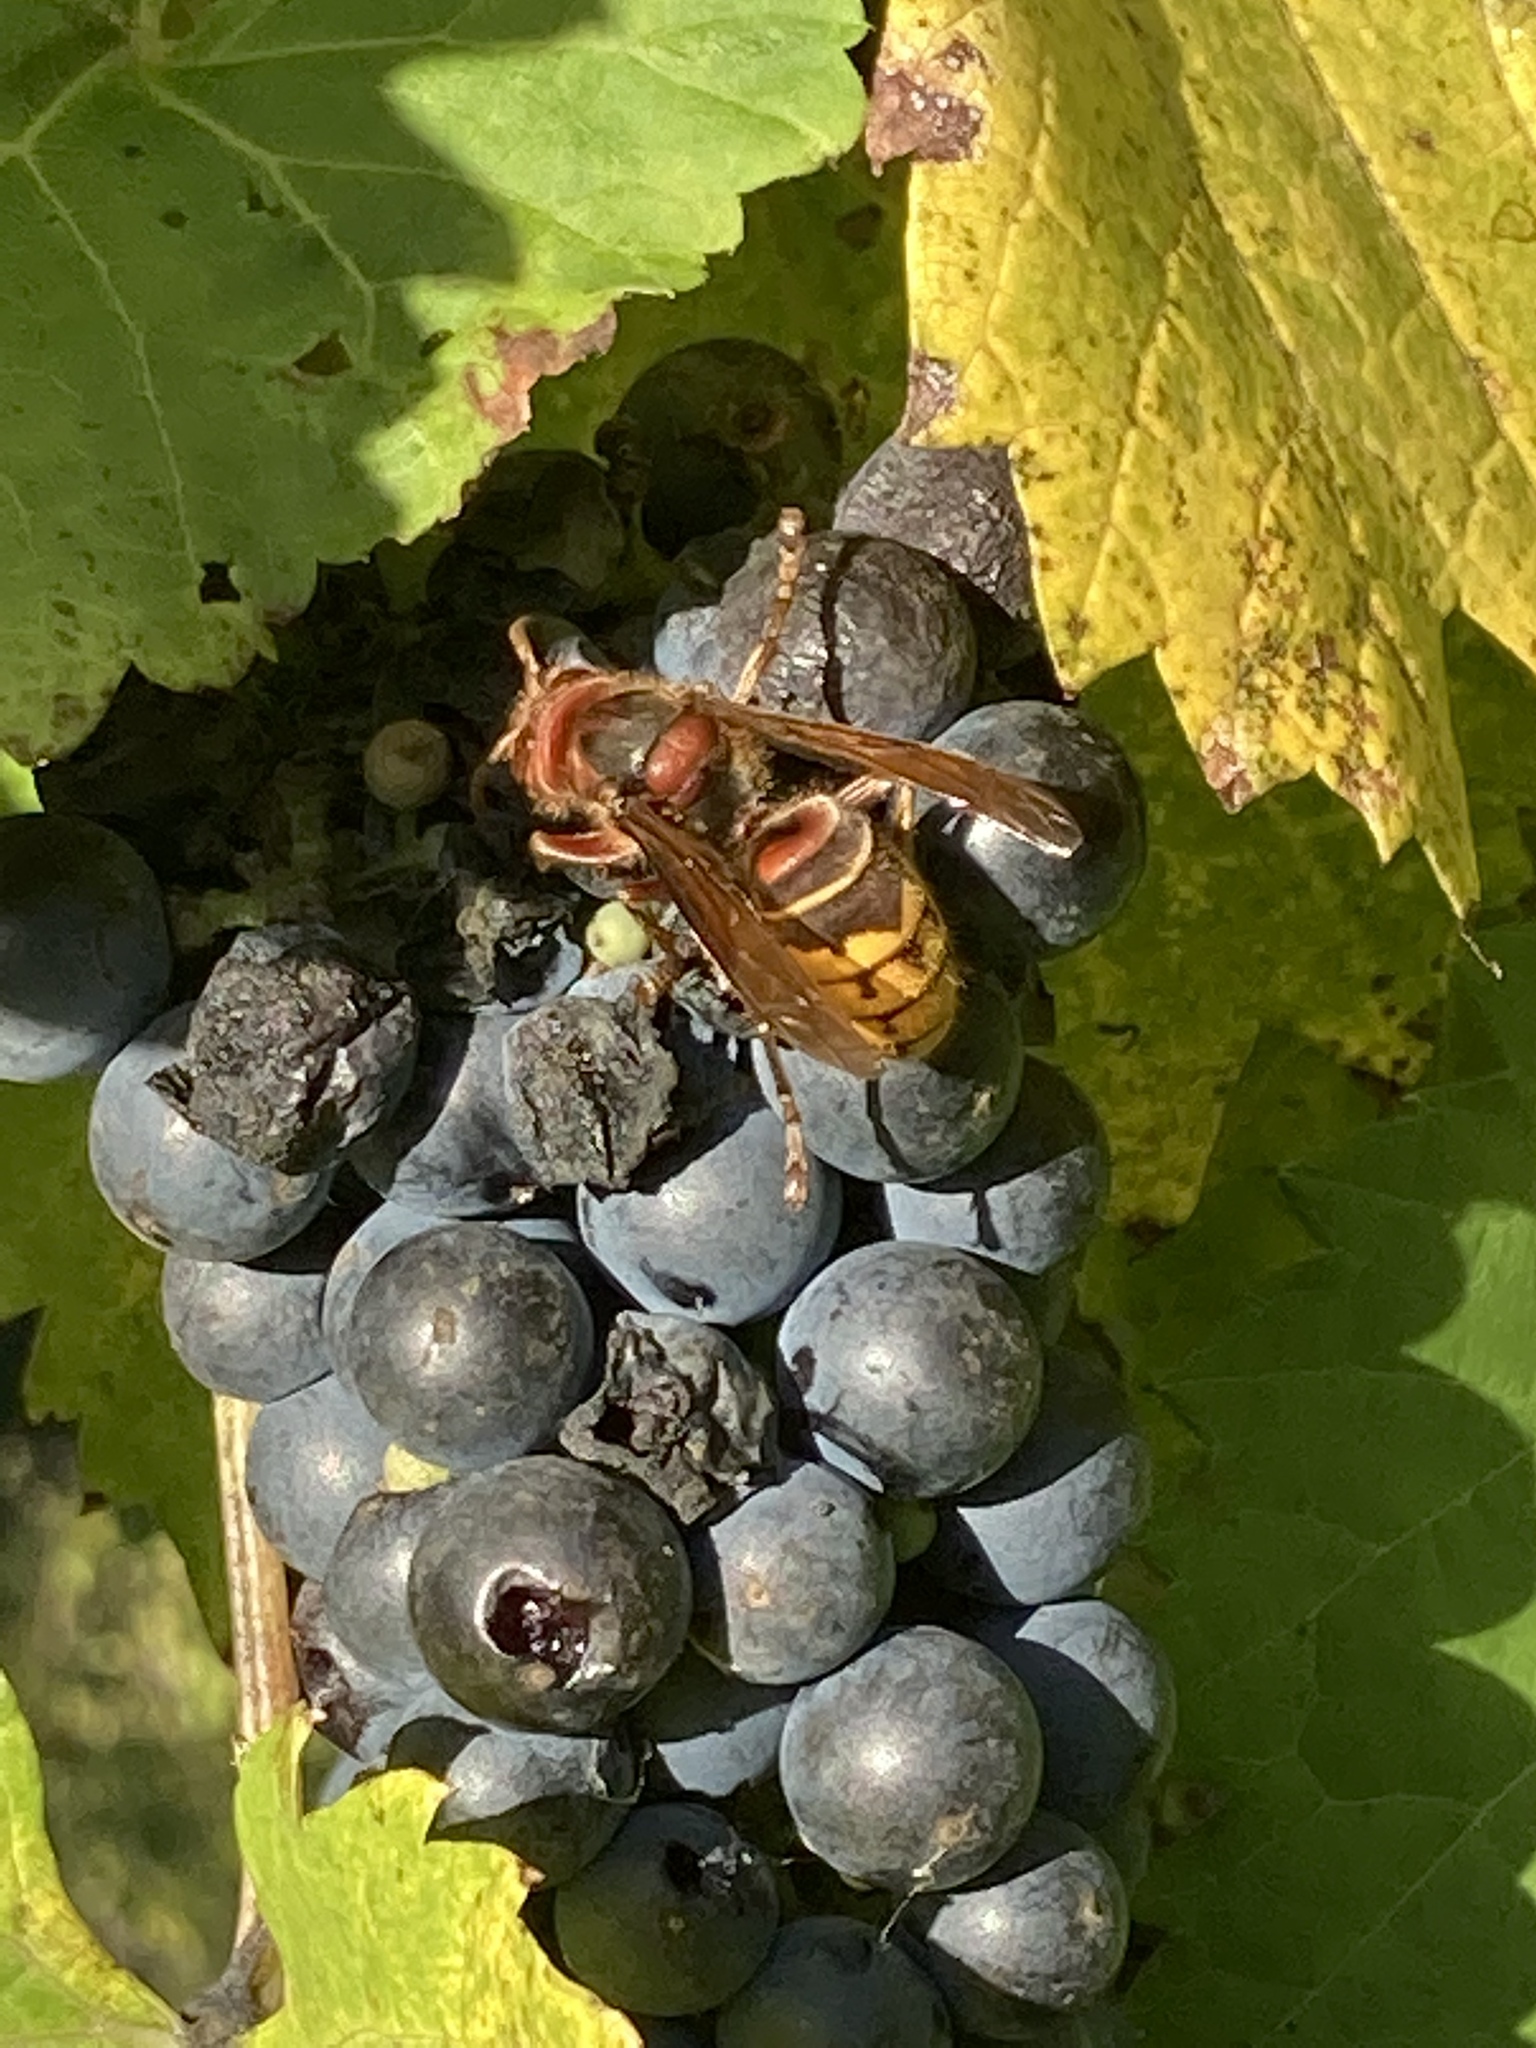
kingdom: Animalia
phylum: Arthropoda
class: Insecta
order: Hymenoptera
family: Vespidae
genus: Vespa
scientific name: Vespa crabro
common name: Hornet
